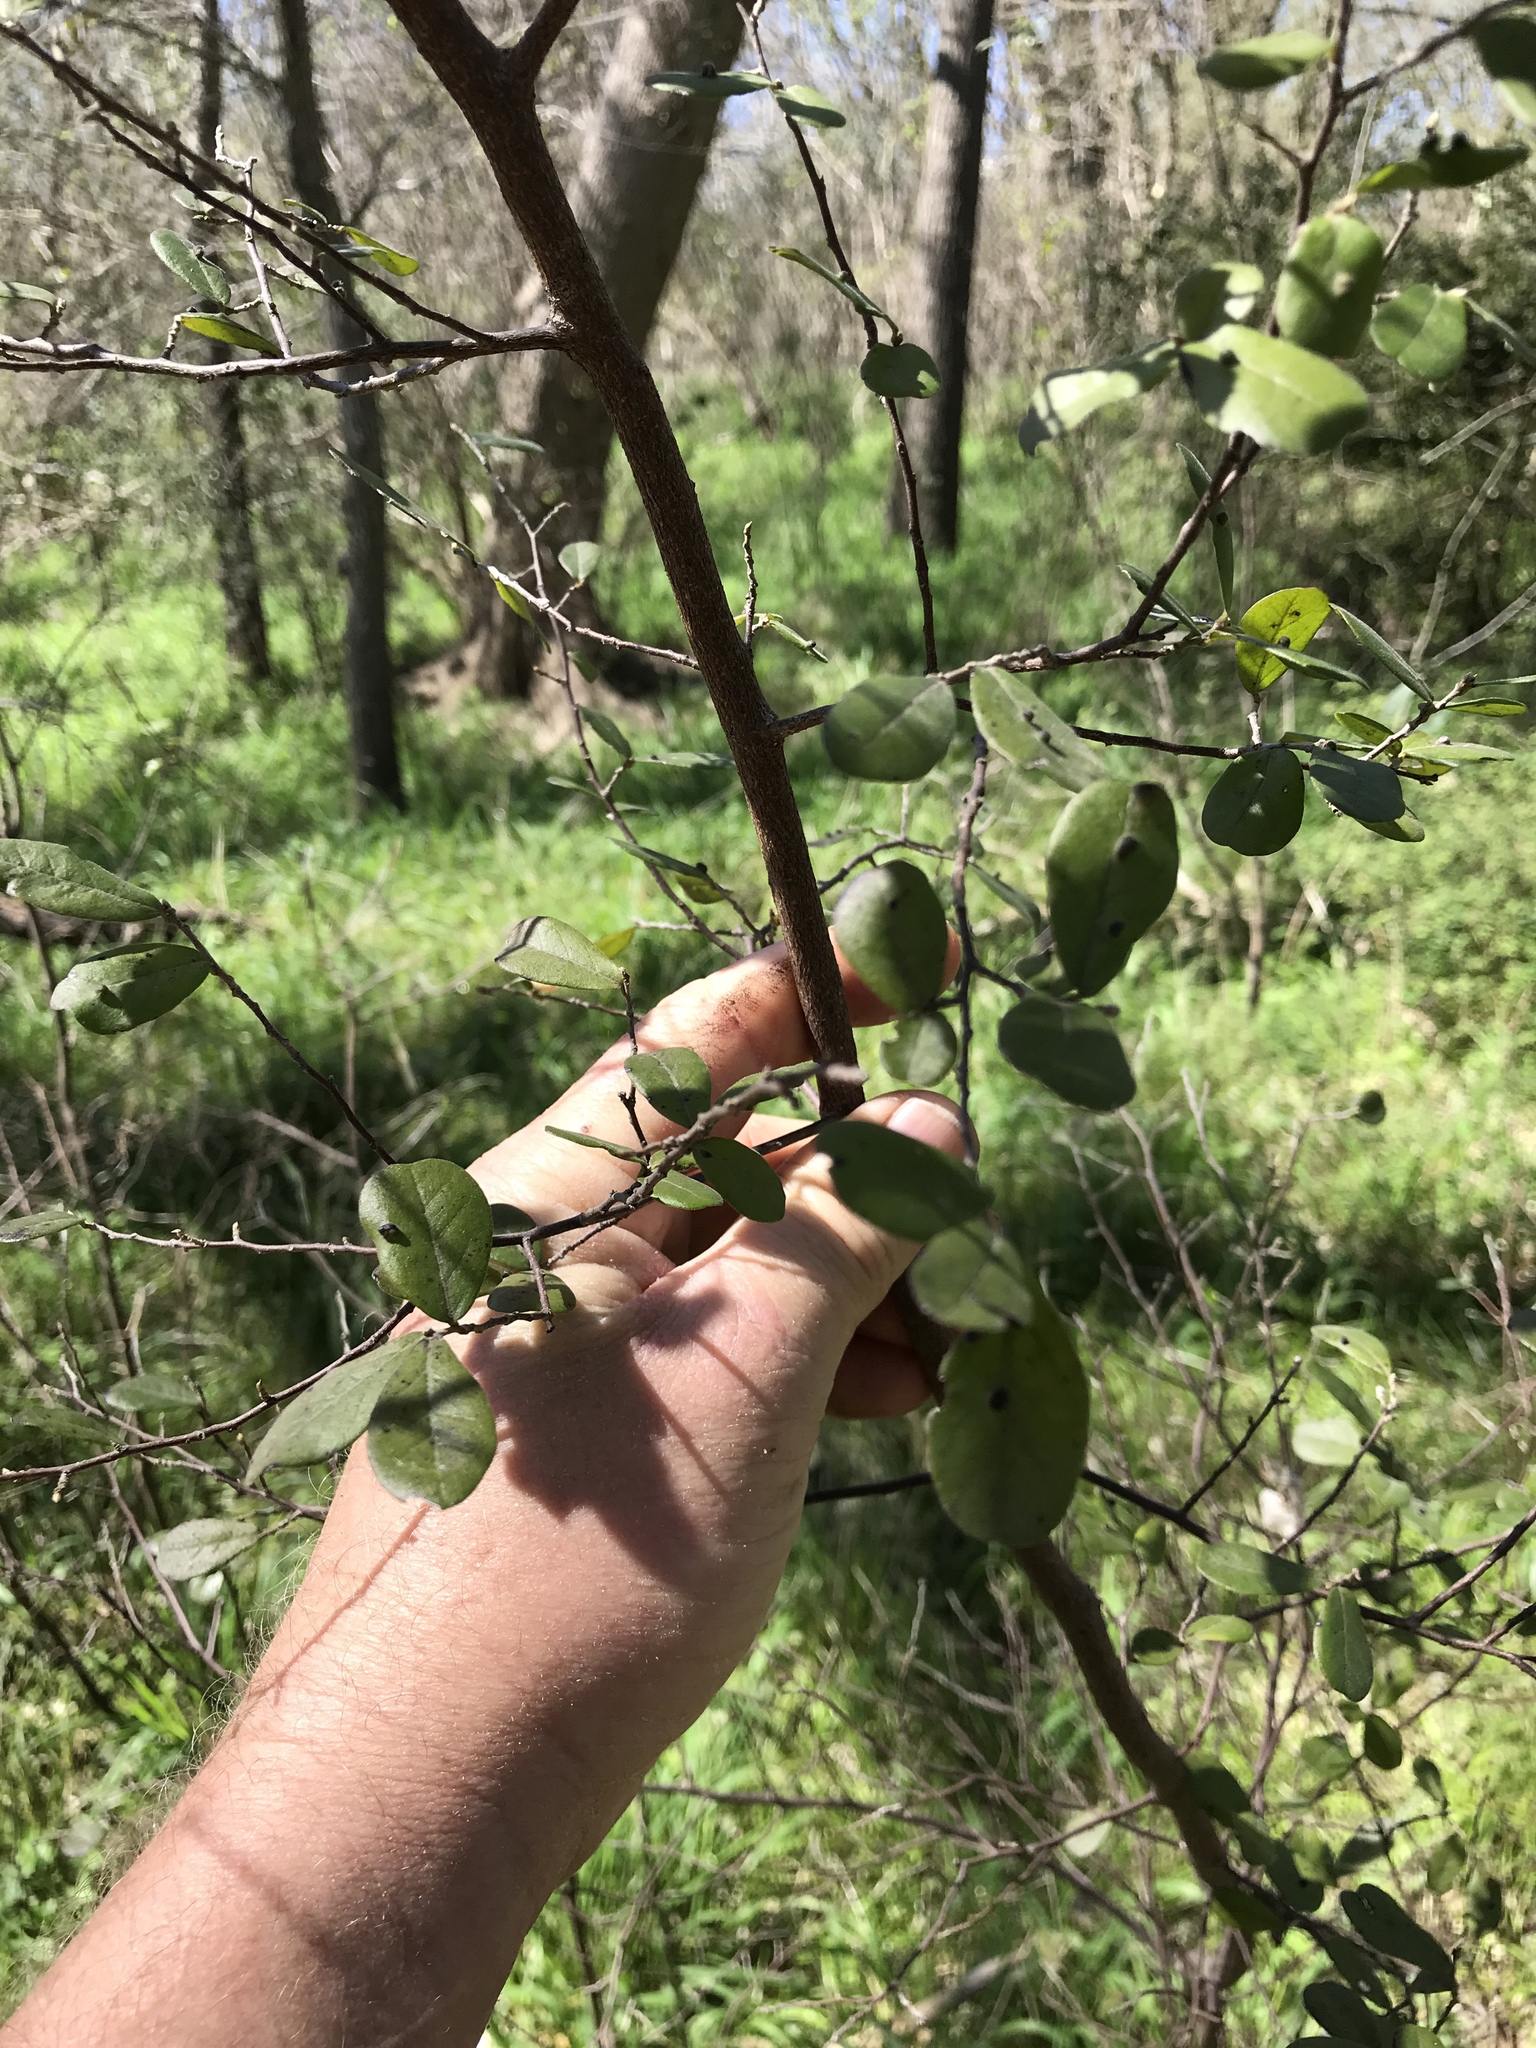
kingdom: Plantae
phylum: Tracheophyta
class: Magnoliopsida
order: Ericales
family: Ebenaceae
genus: Diospyros
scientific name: Diospyros texana
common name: Texas persimmon
